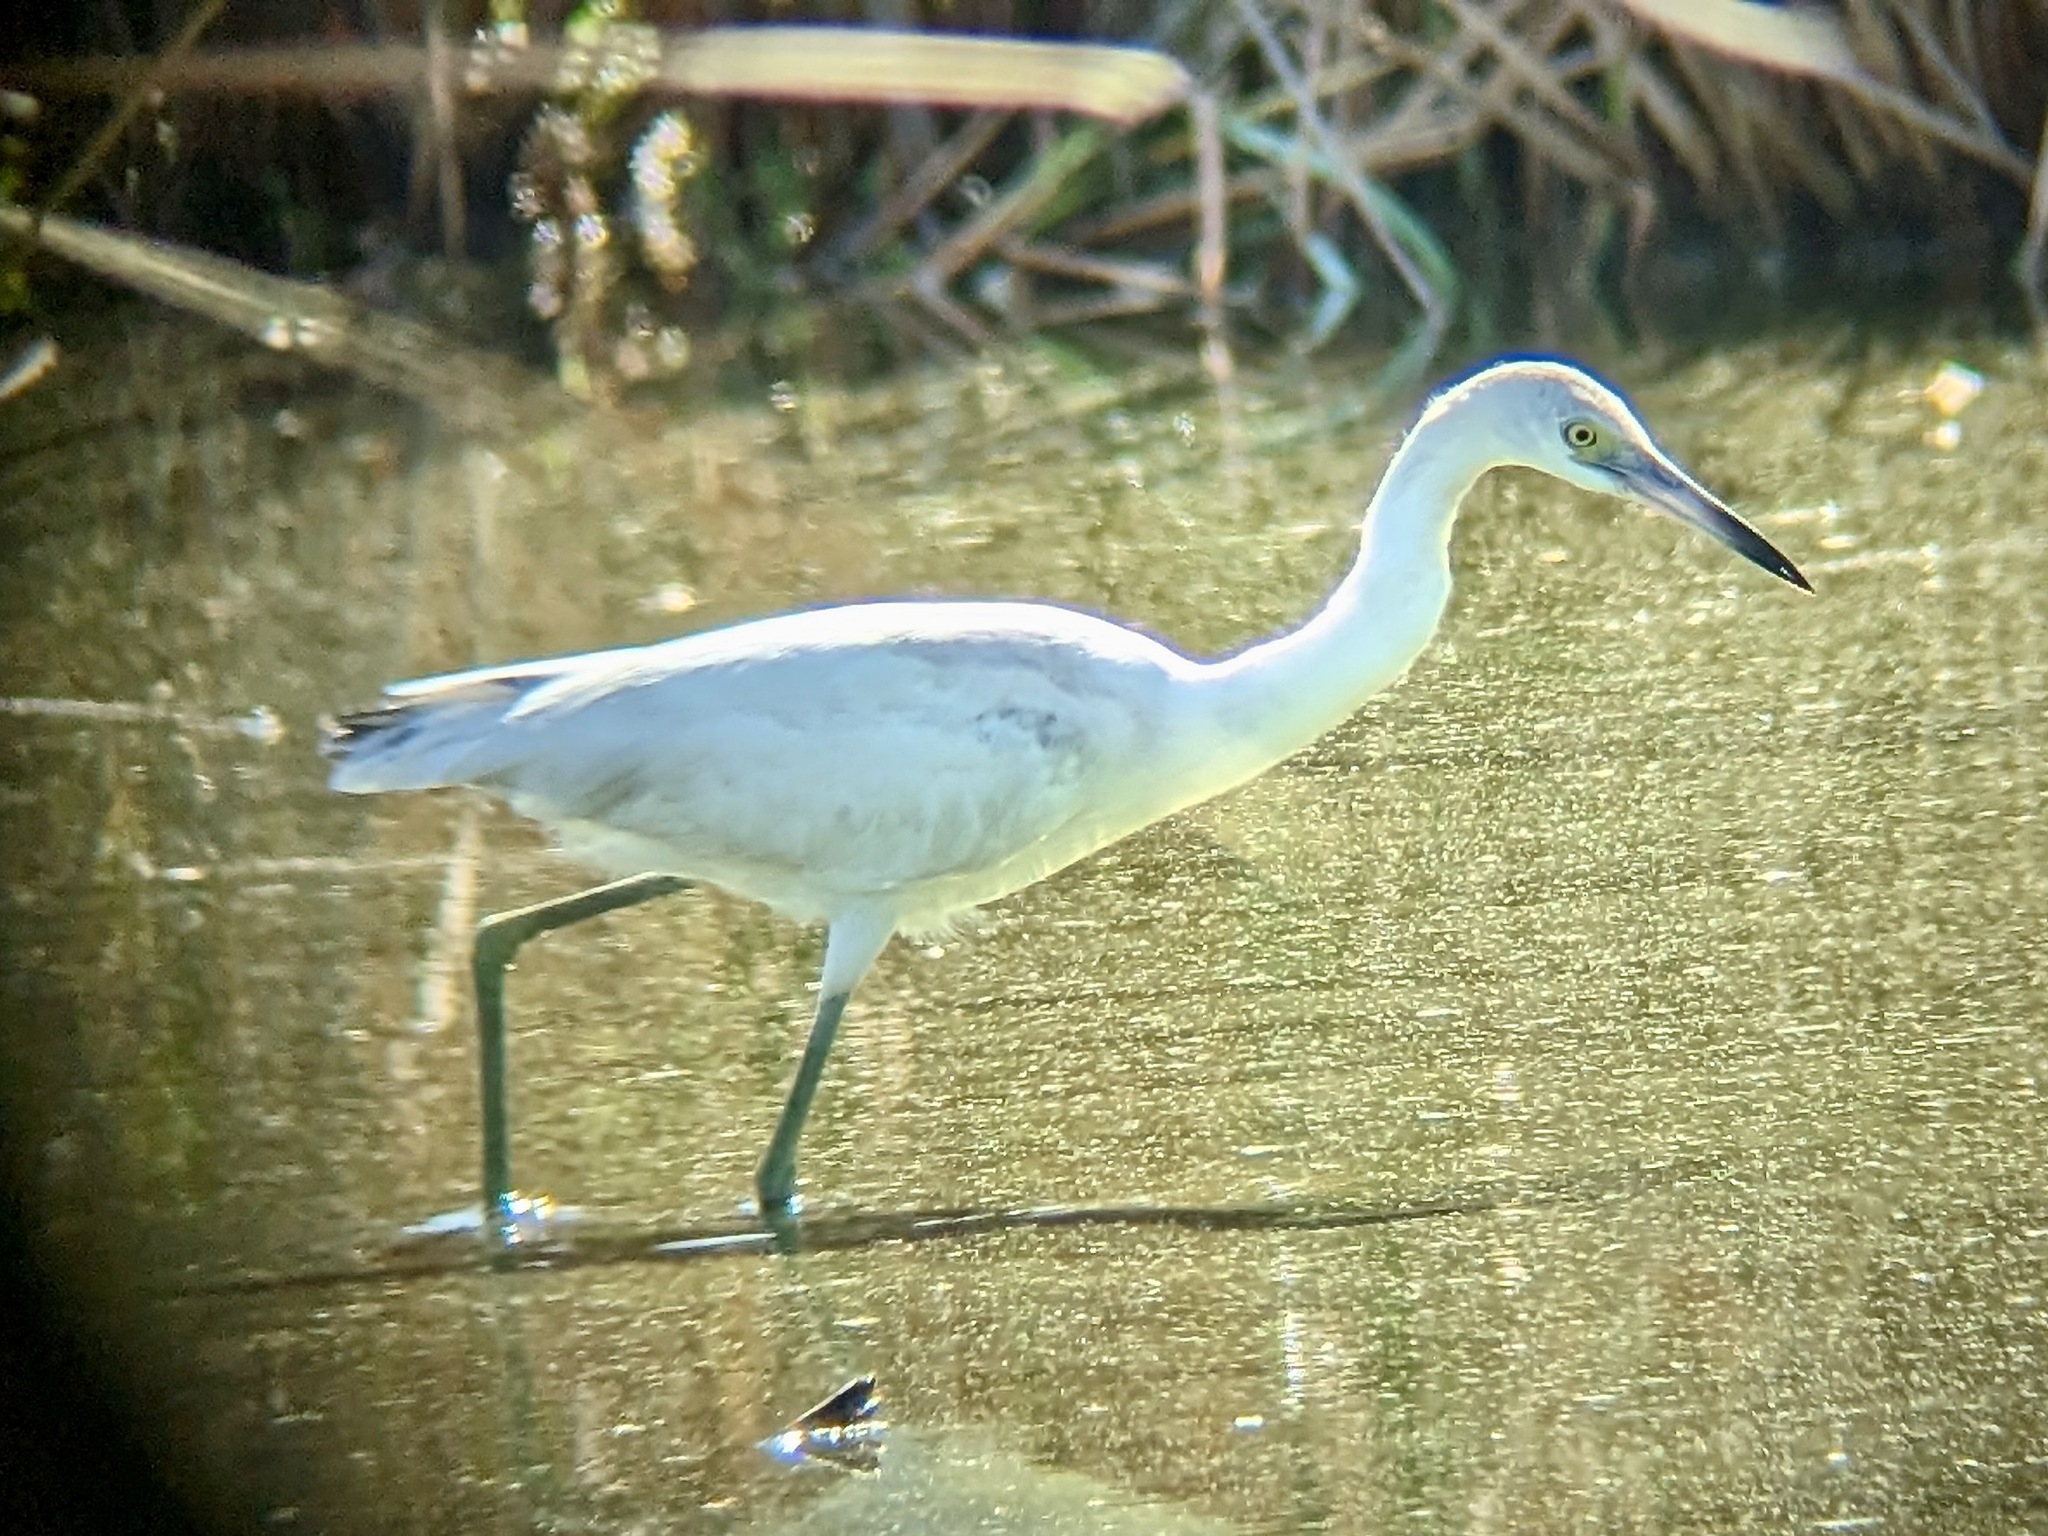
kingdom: Animalia
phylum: Chordata
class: Aves
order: Pelecaniformes
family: Ardeidae
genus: Egretta
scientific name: Egretta caerulea
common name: Little blue heron
